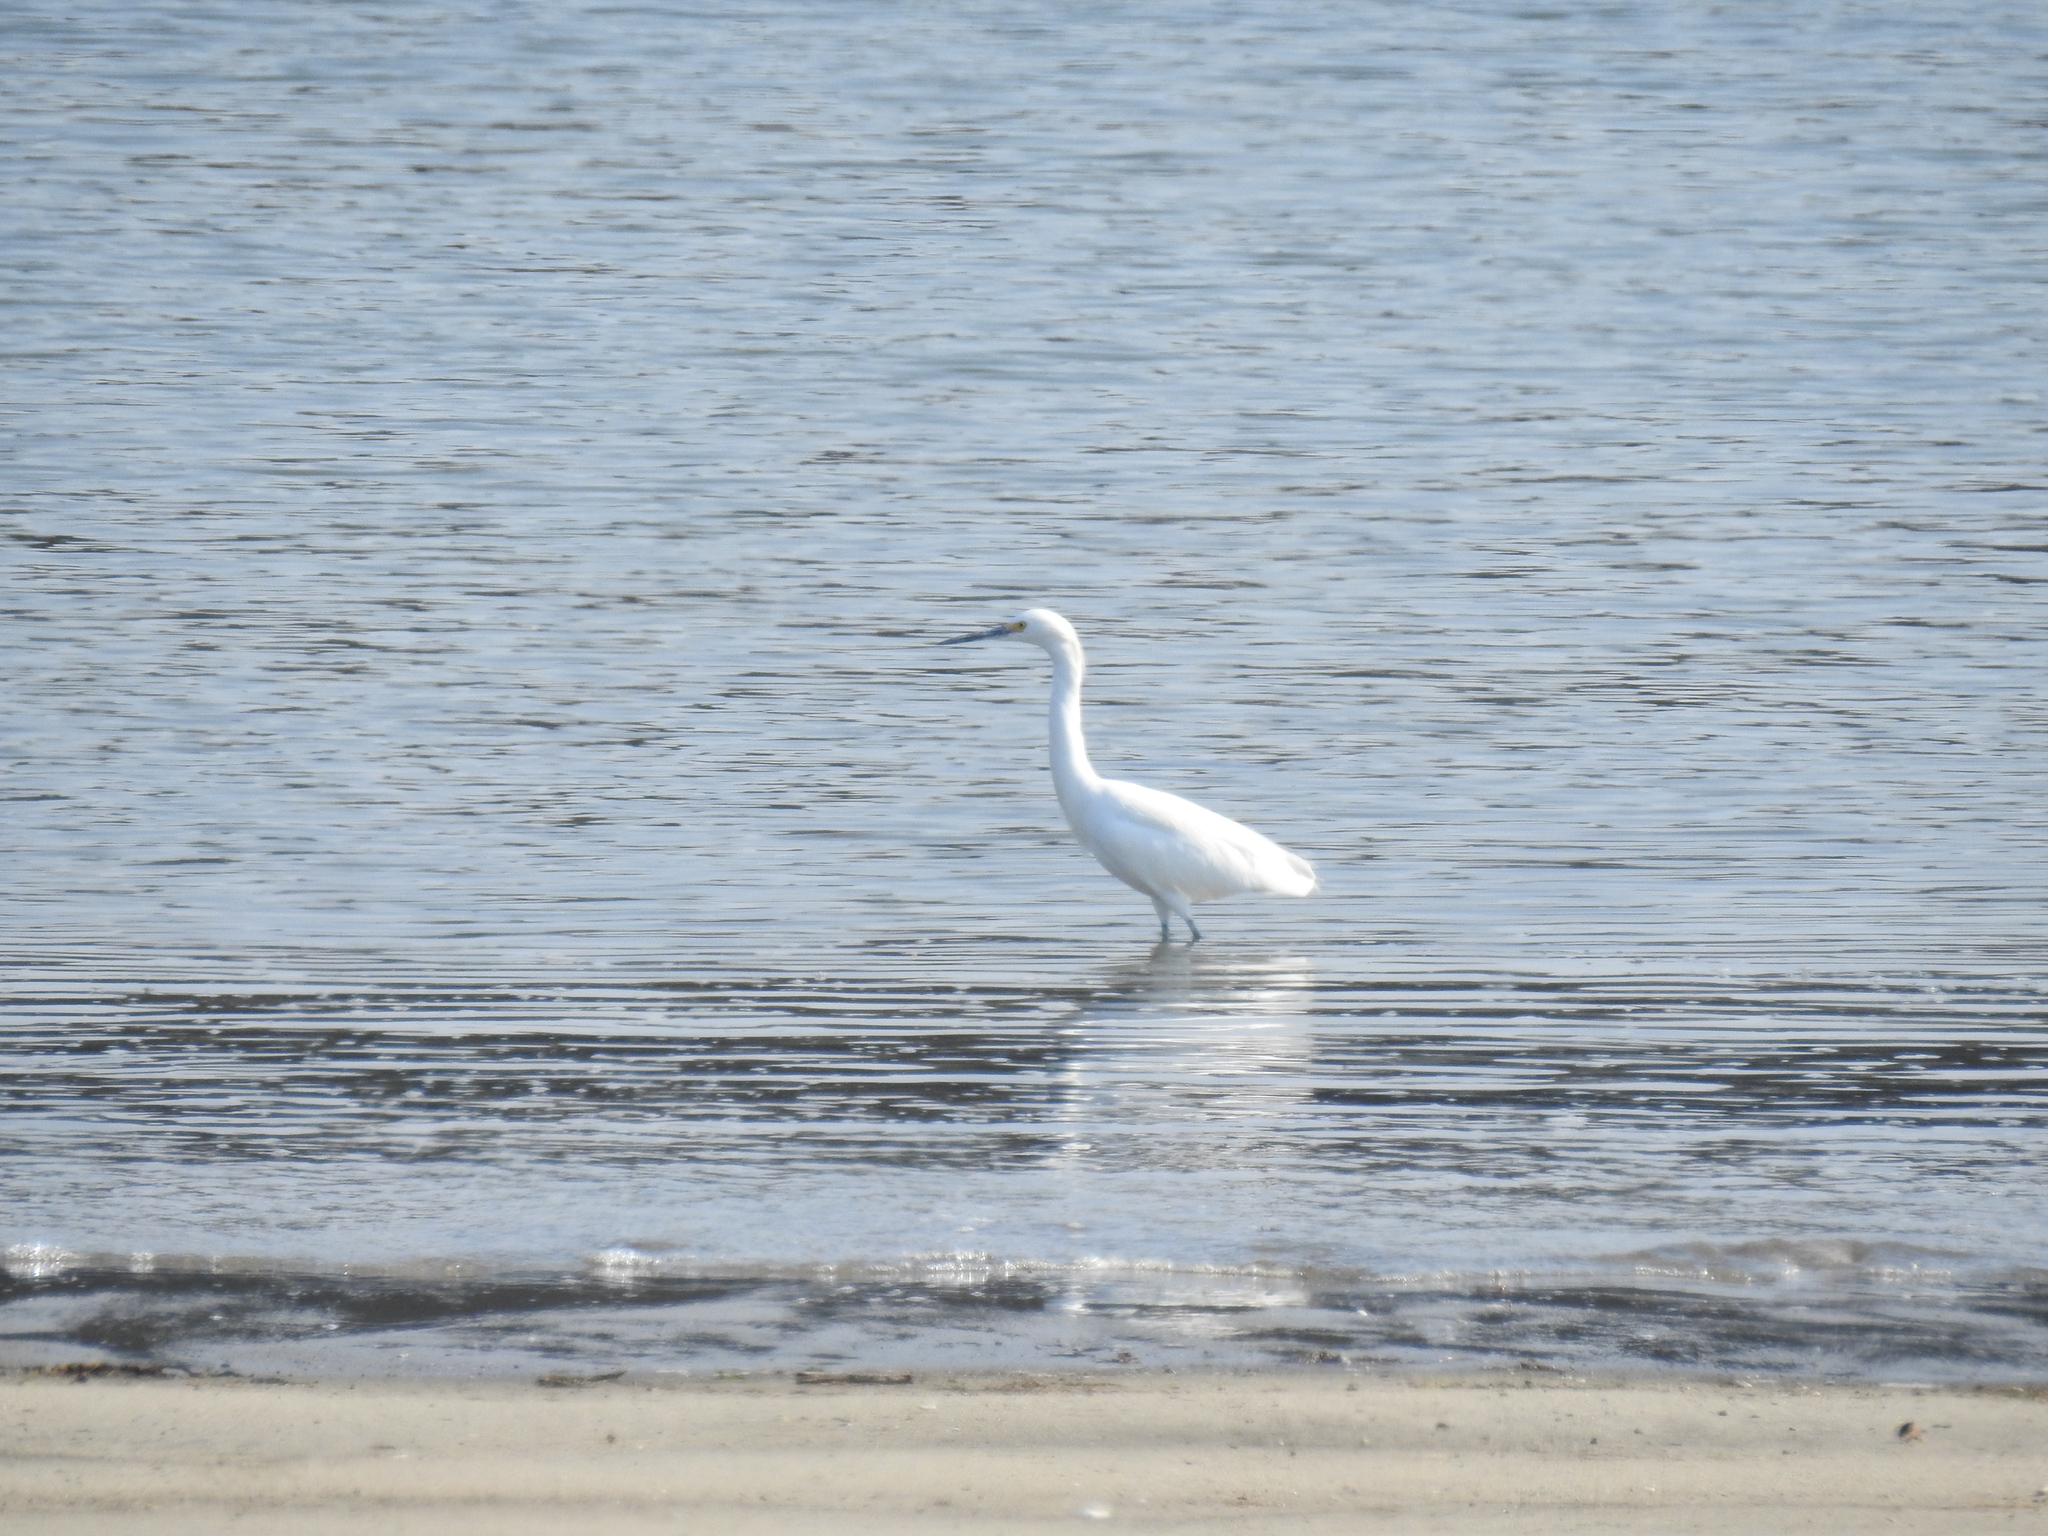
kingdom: Animalia
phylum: Chordata
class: Aves
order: Pelecaniformes
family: Ardeidae
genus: Egretta
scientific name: Egretta thula
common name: Snowy egret
